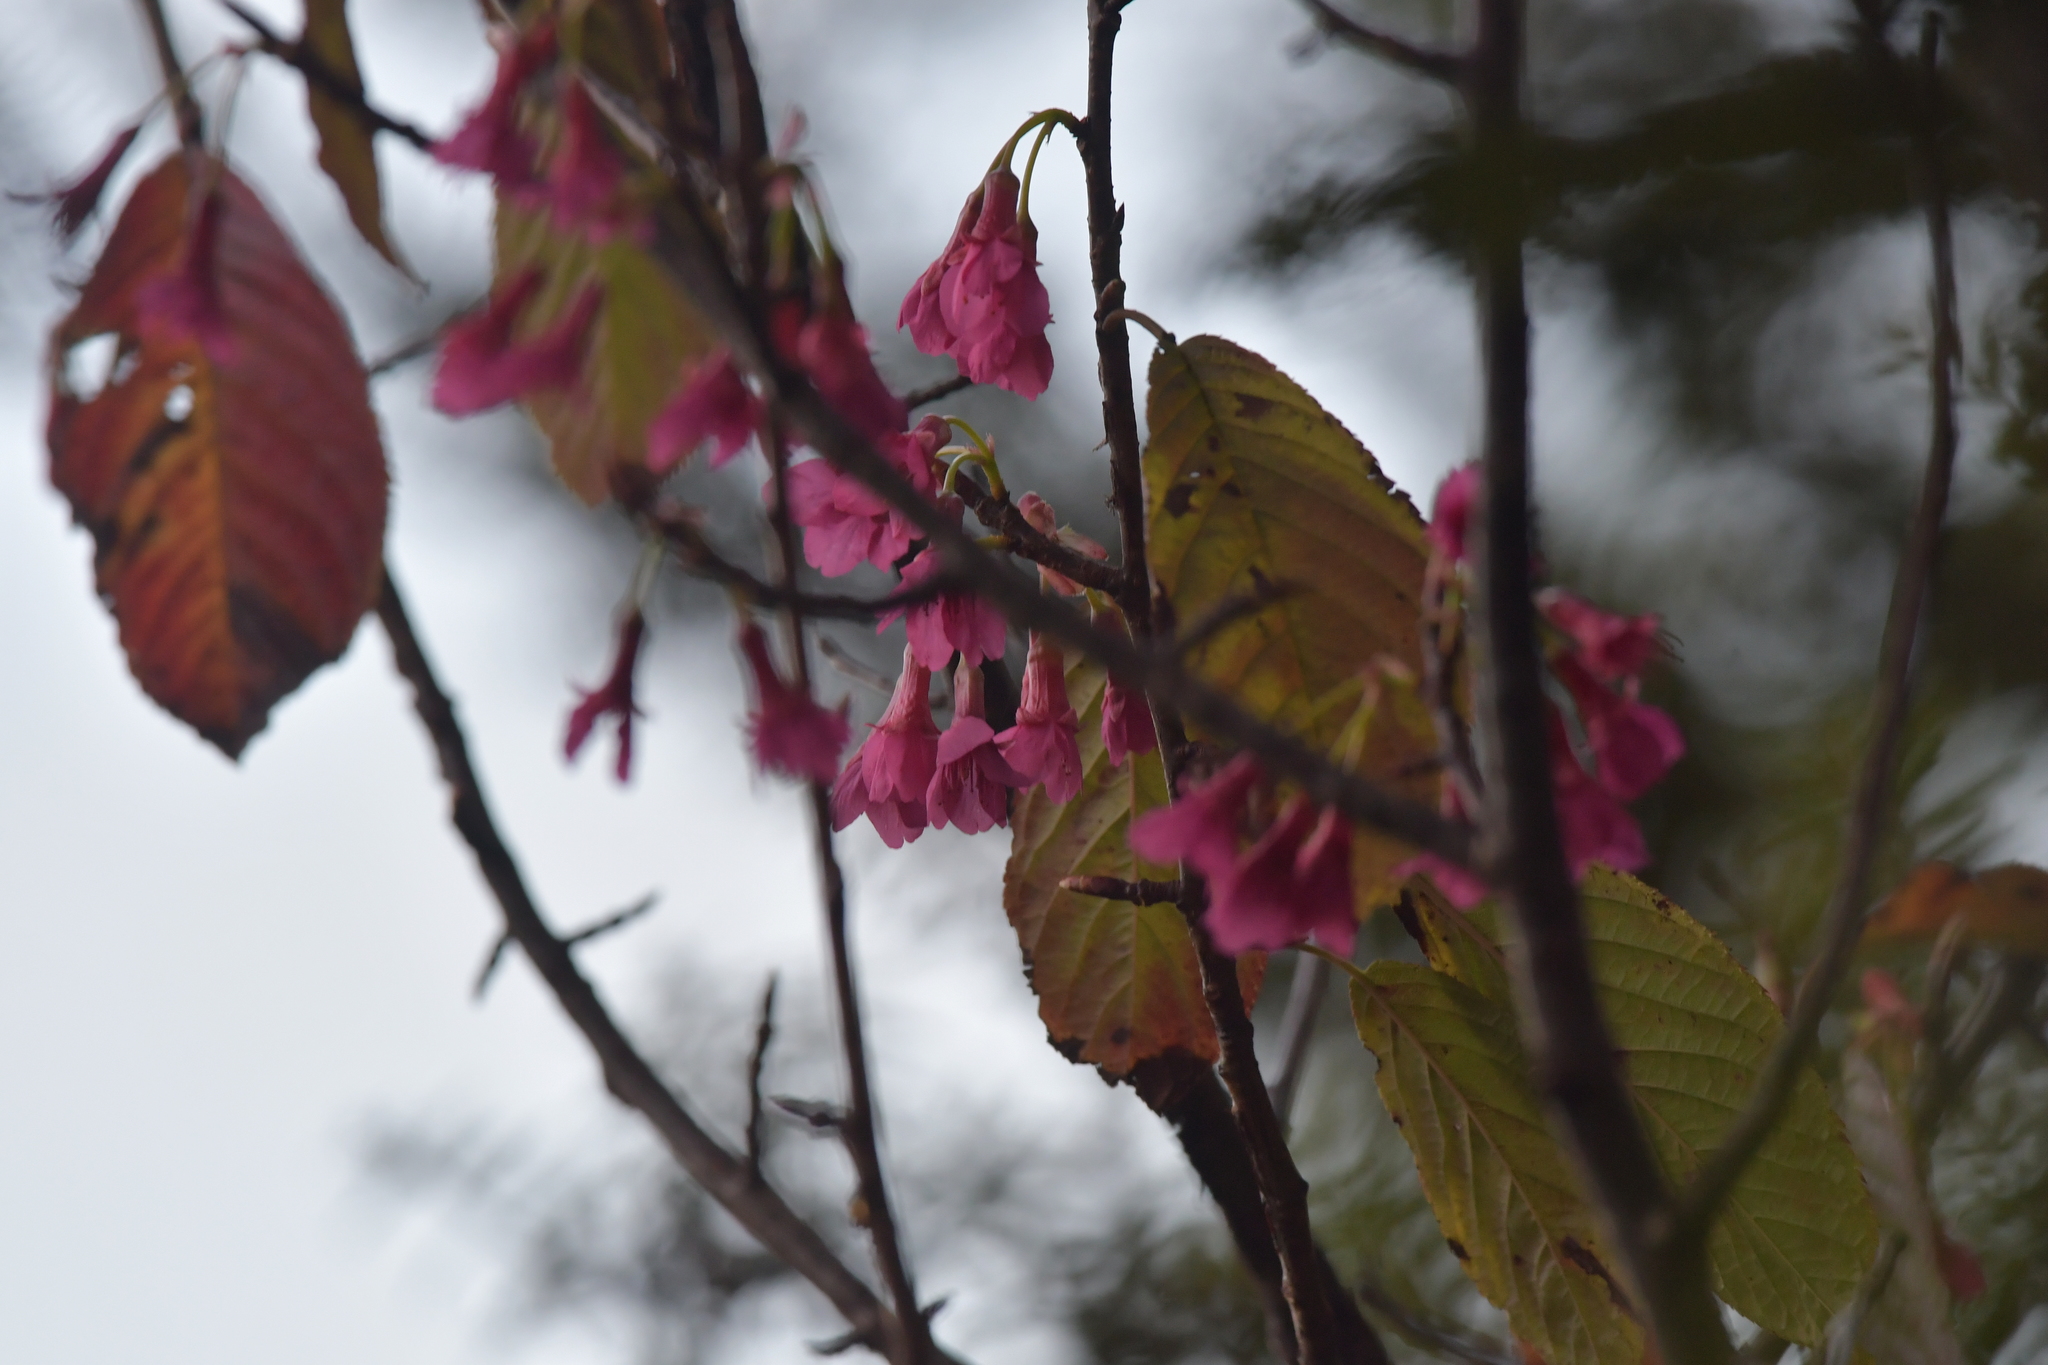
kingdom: Plantae
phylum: Tracheophyta
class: Magnoliopsida
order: Rosales
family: Rosaceae
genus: Prunus
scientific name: Prunus campanulata
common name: Taiwan flowering cherry
